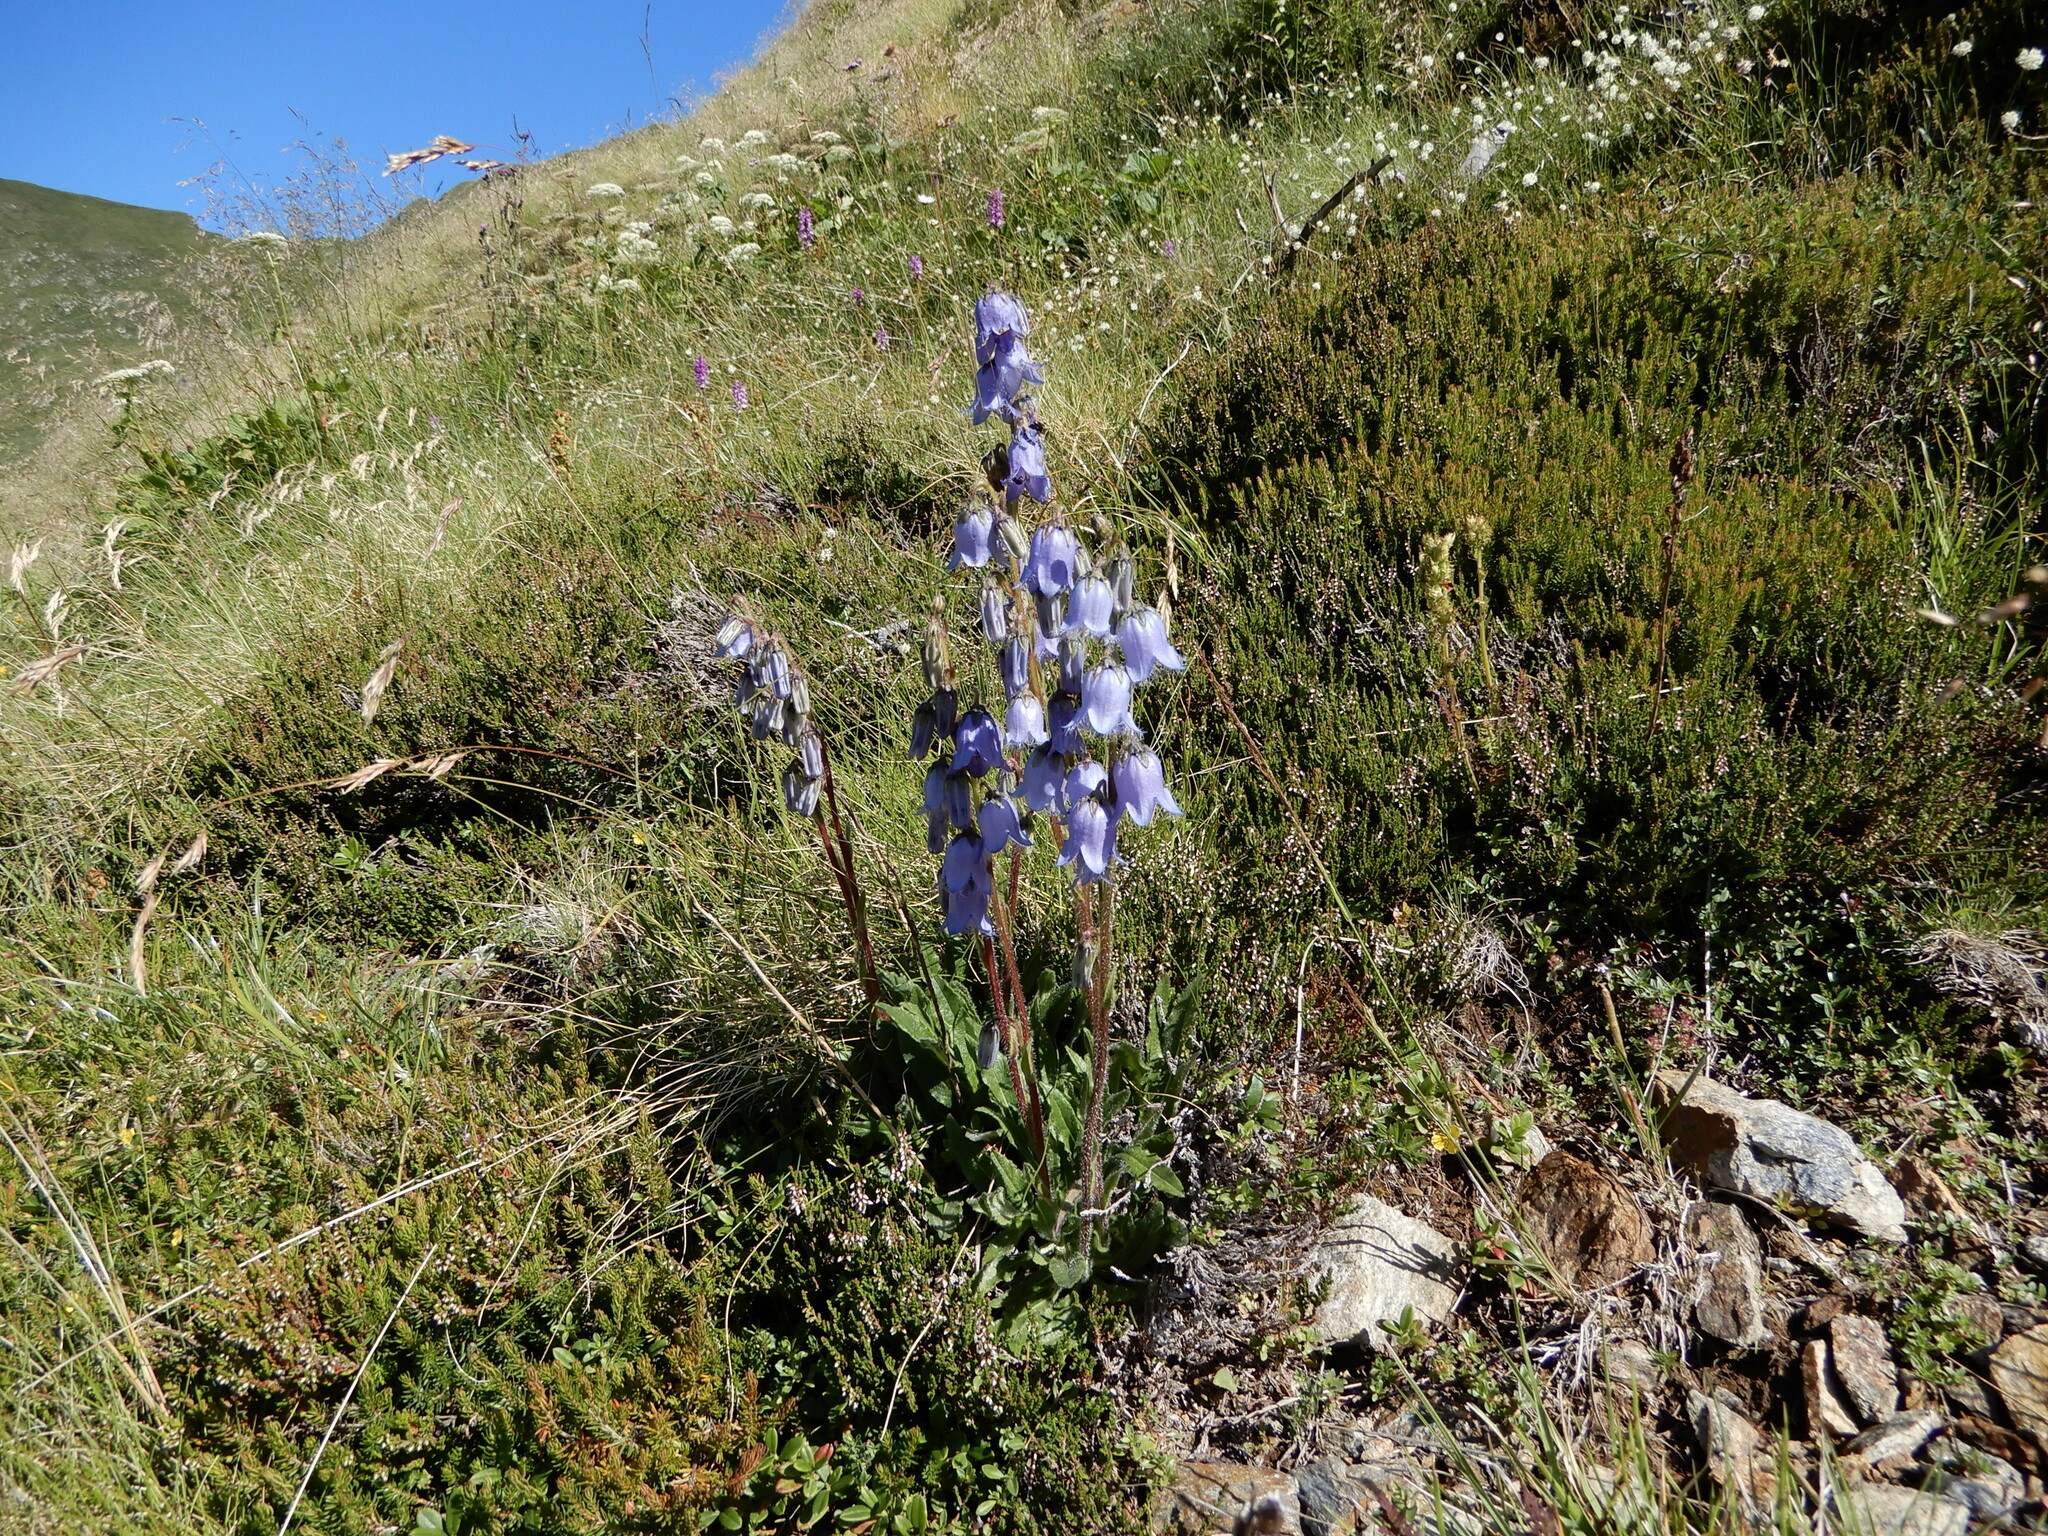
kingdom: Plantae
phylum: Tracheophyta
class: Magnoliopsida
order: Asterales
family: Campanulaceae
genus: Campanula
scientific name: Campanula barbata
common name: Bearded bellflower
